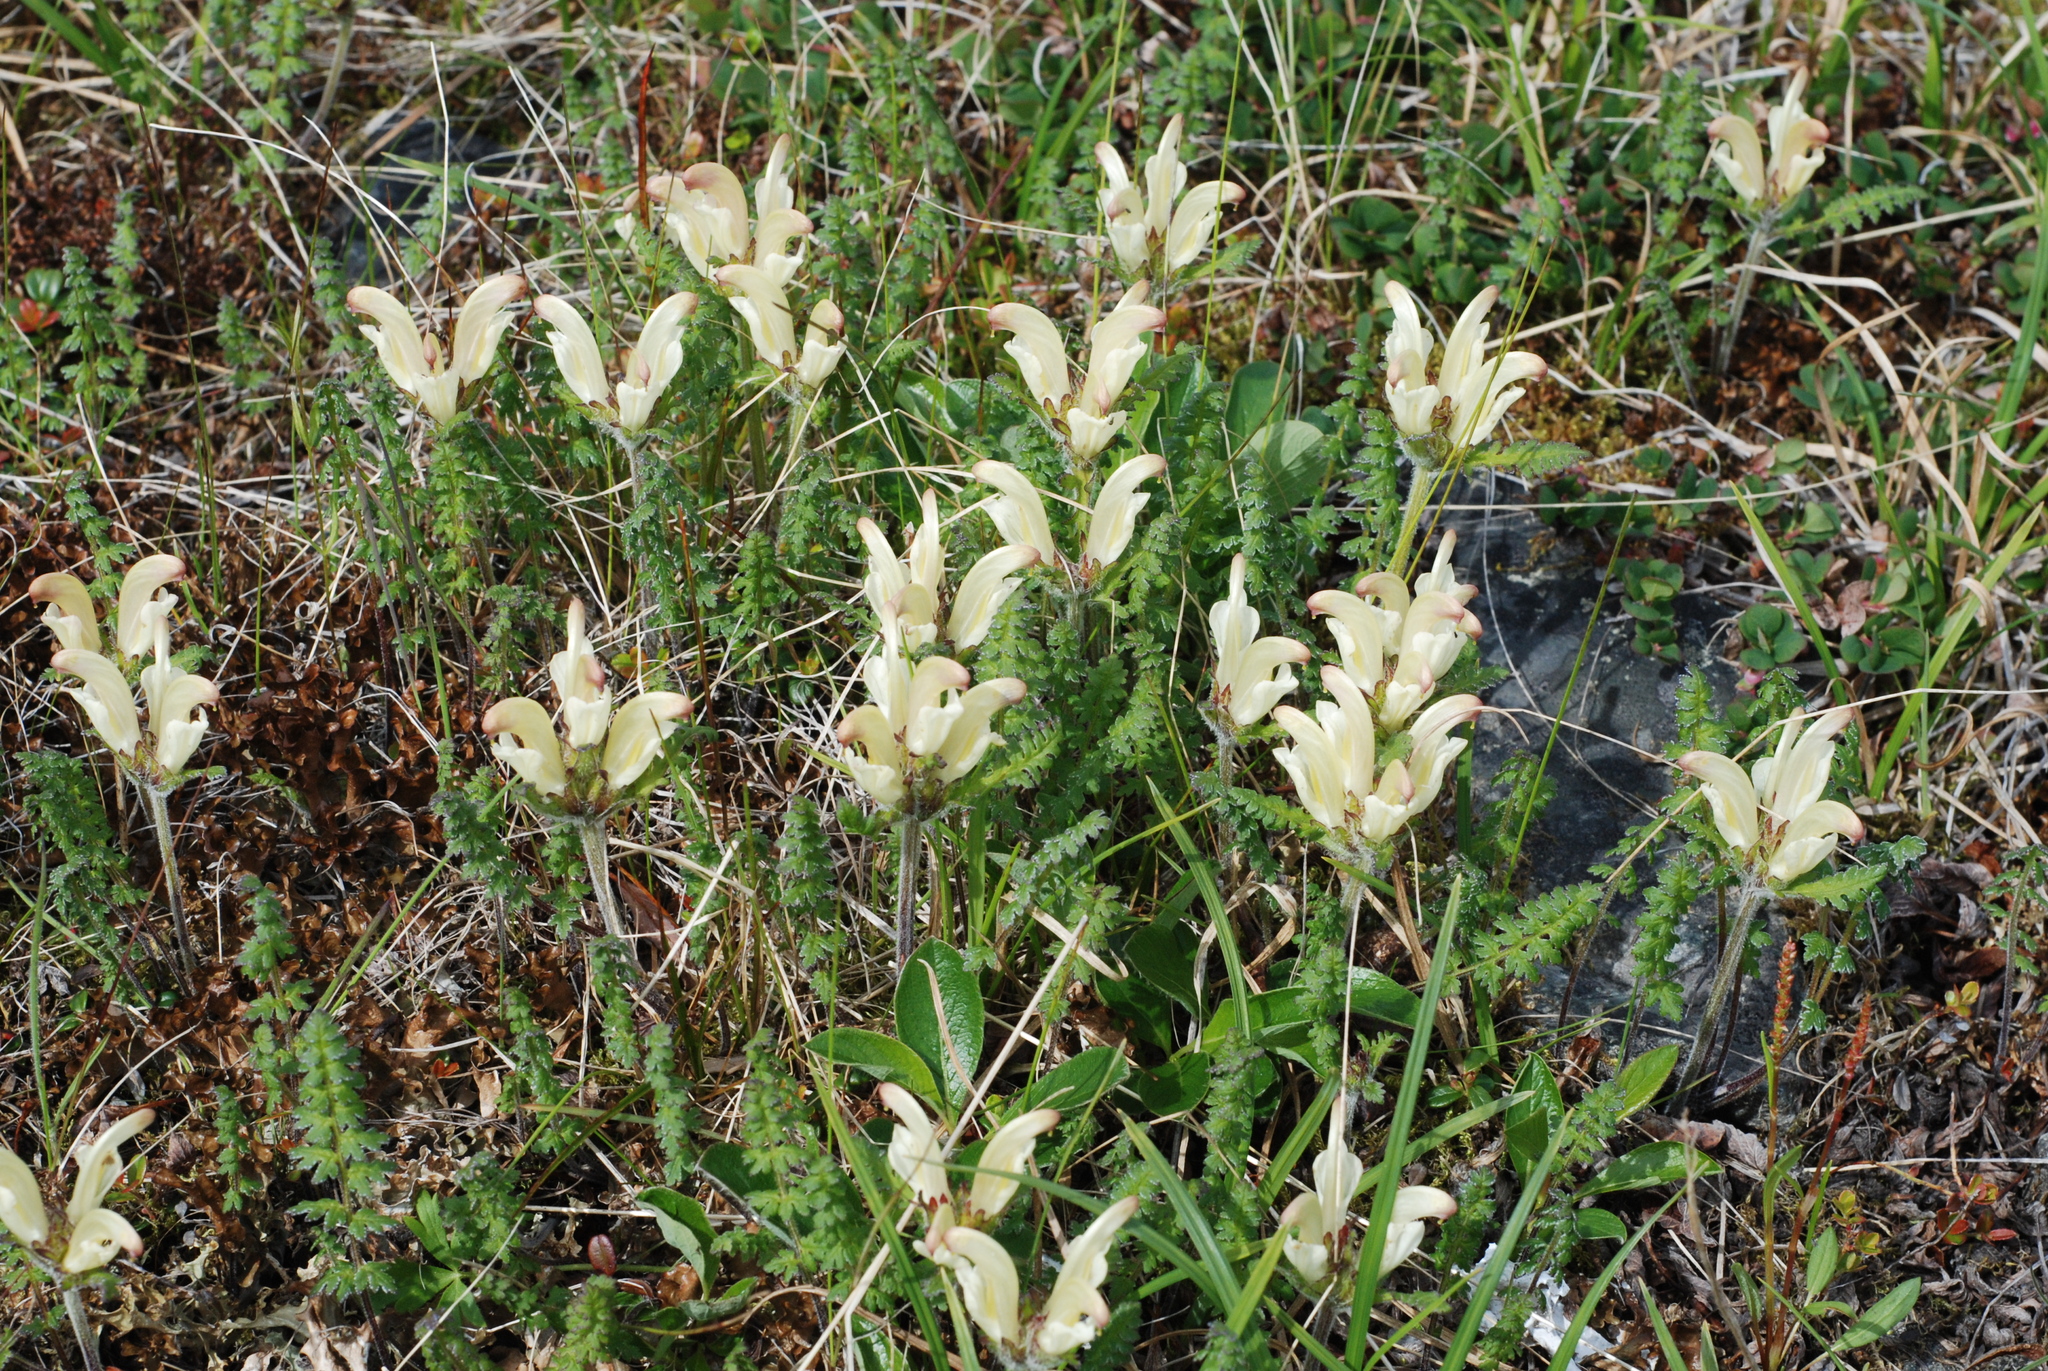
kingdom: Plantae
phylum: Tracheophyta
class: Magnoliopsida
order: Lamiales
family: Orobanchaceae
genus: Pedicularis
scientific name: Pedicularis capitata
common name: Capitate lousewort
